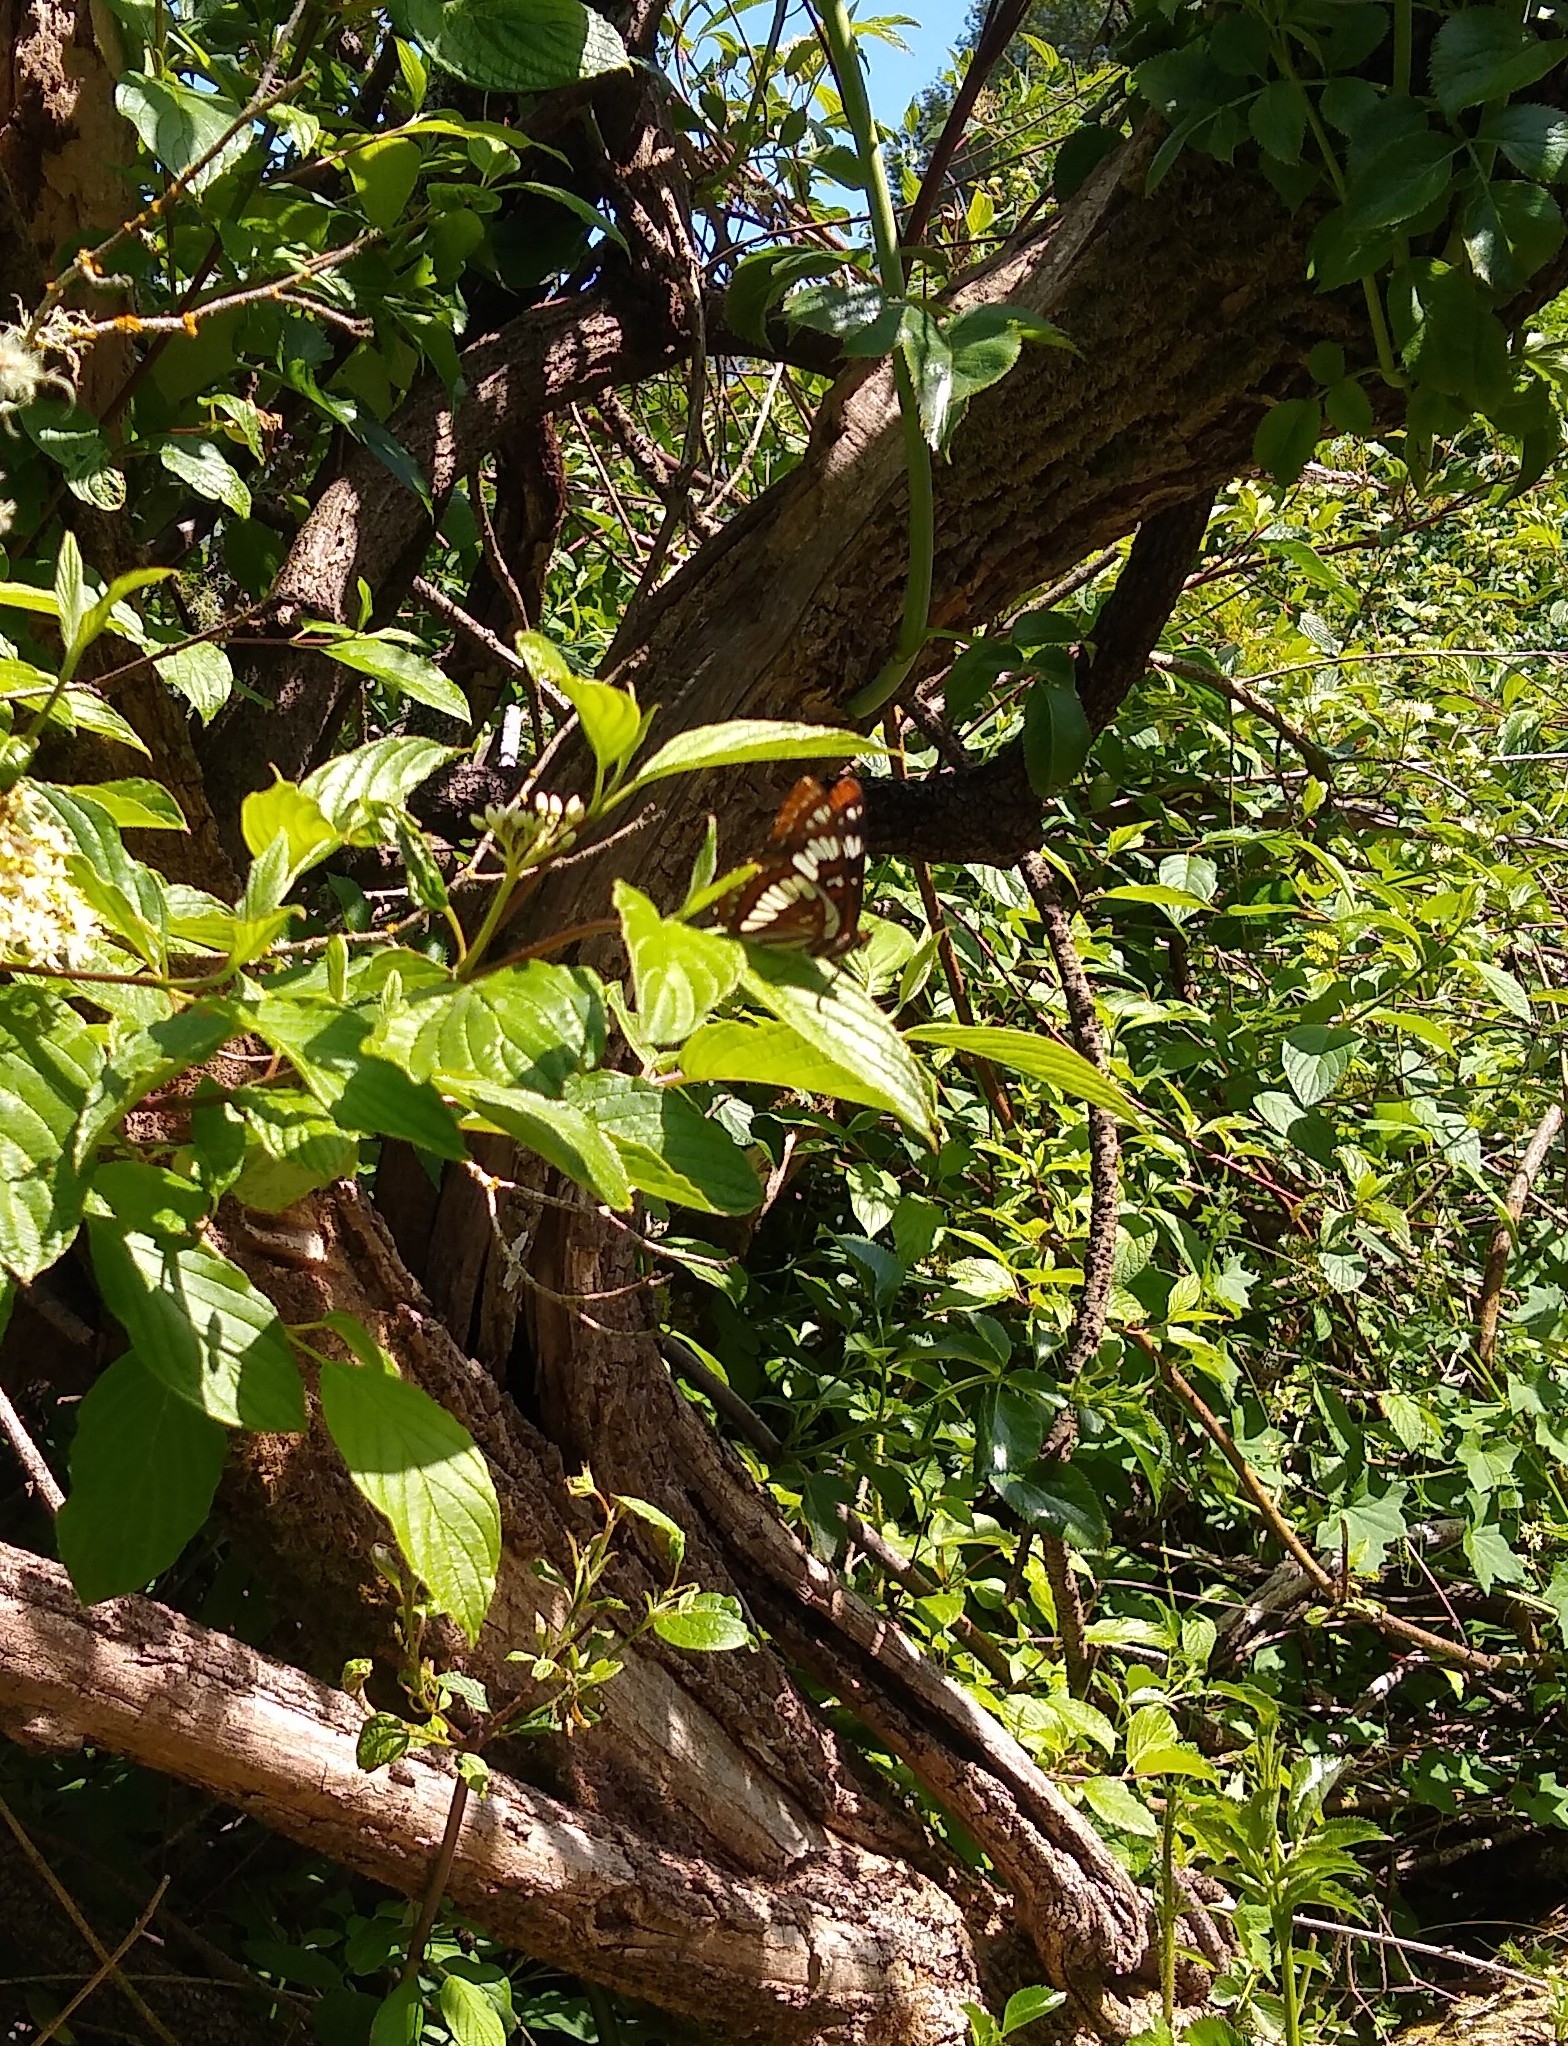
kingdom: Animalia
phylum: Arthropoda
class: Insecta
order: Lepidoptera
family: Nymphalidae
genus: Limenitis
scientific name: Limenitis lorquini
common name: Lorquin's admiral
